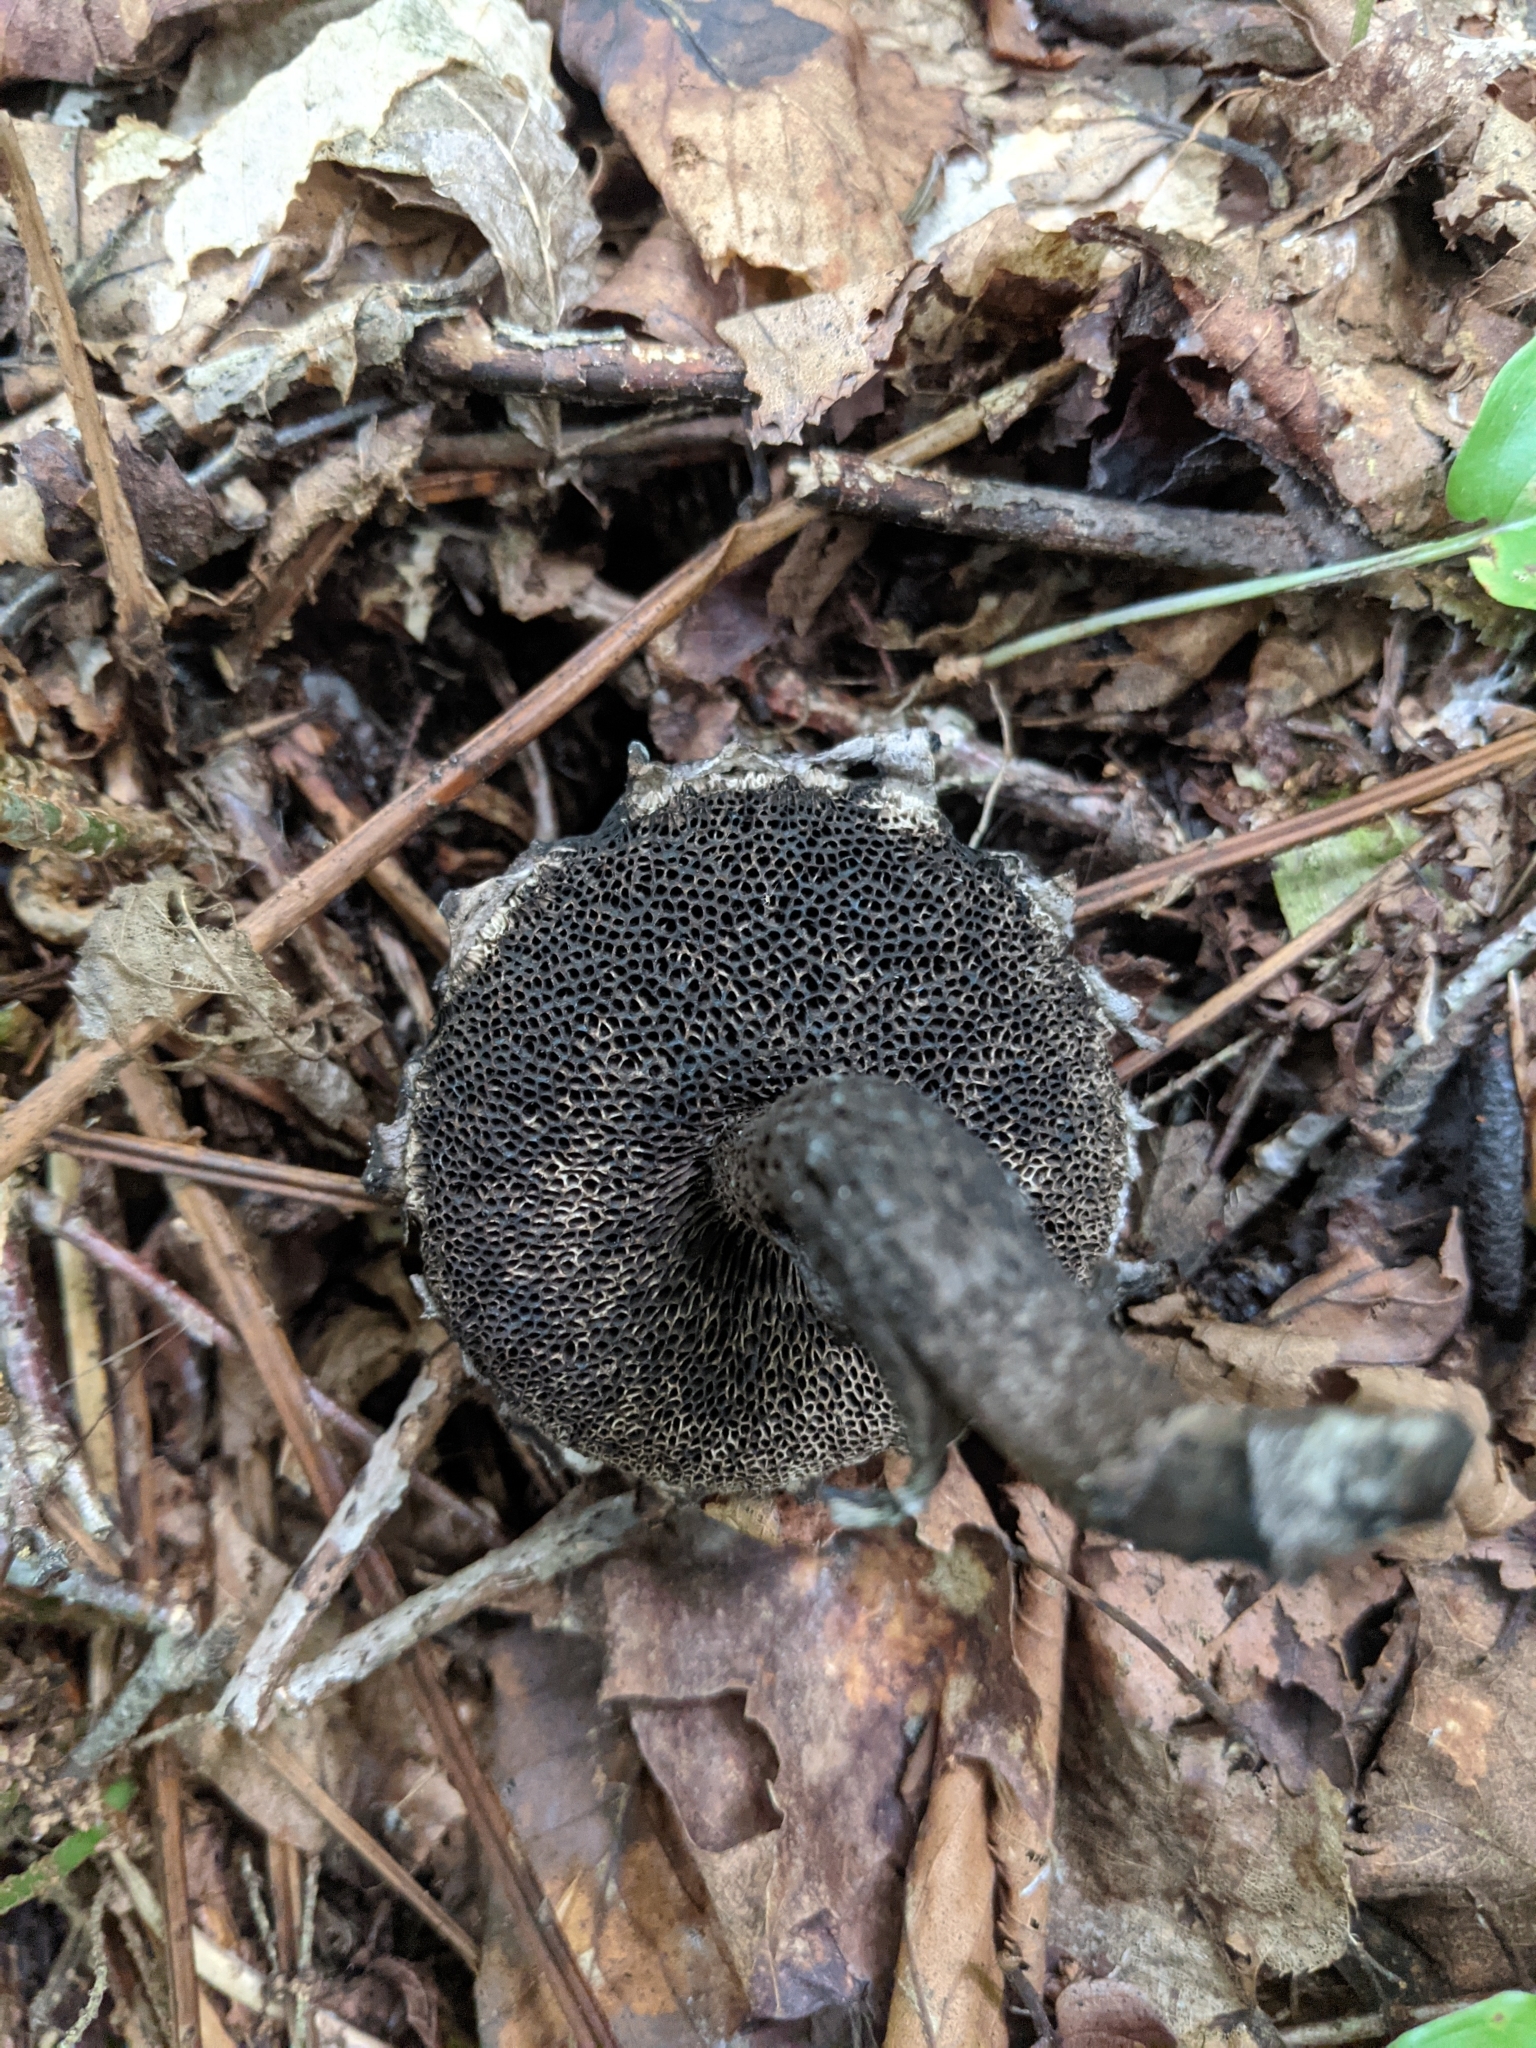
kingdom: Fungi
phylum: Basidiomycota
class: Agaricomycetes
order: Boletales
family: Boletaceae
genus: Strobilomyces
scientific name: Strobilomyces strobilaceus
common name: Old man of the woods
